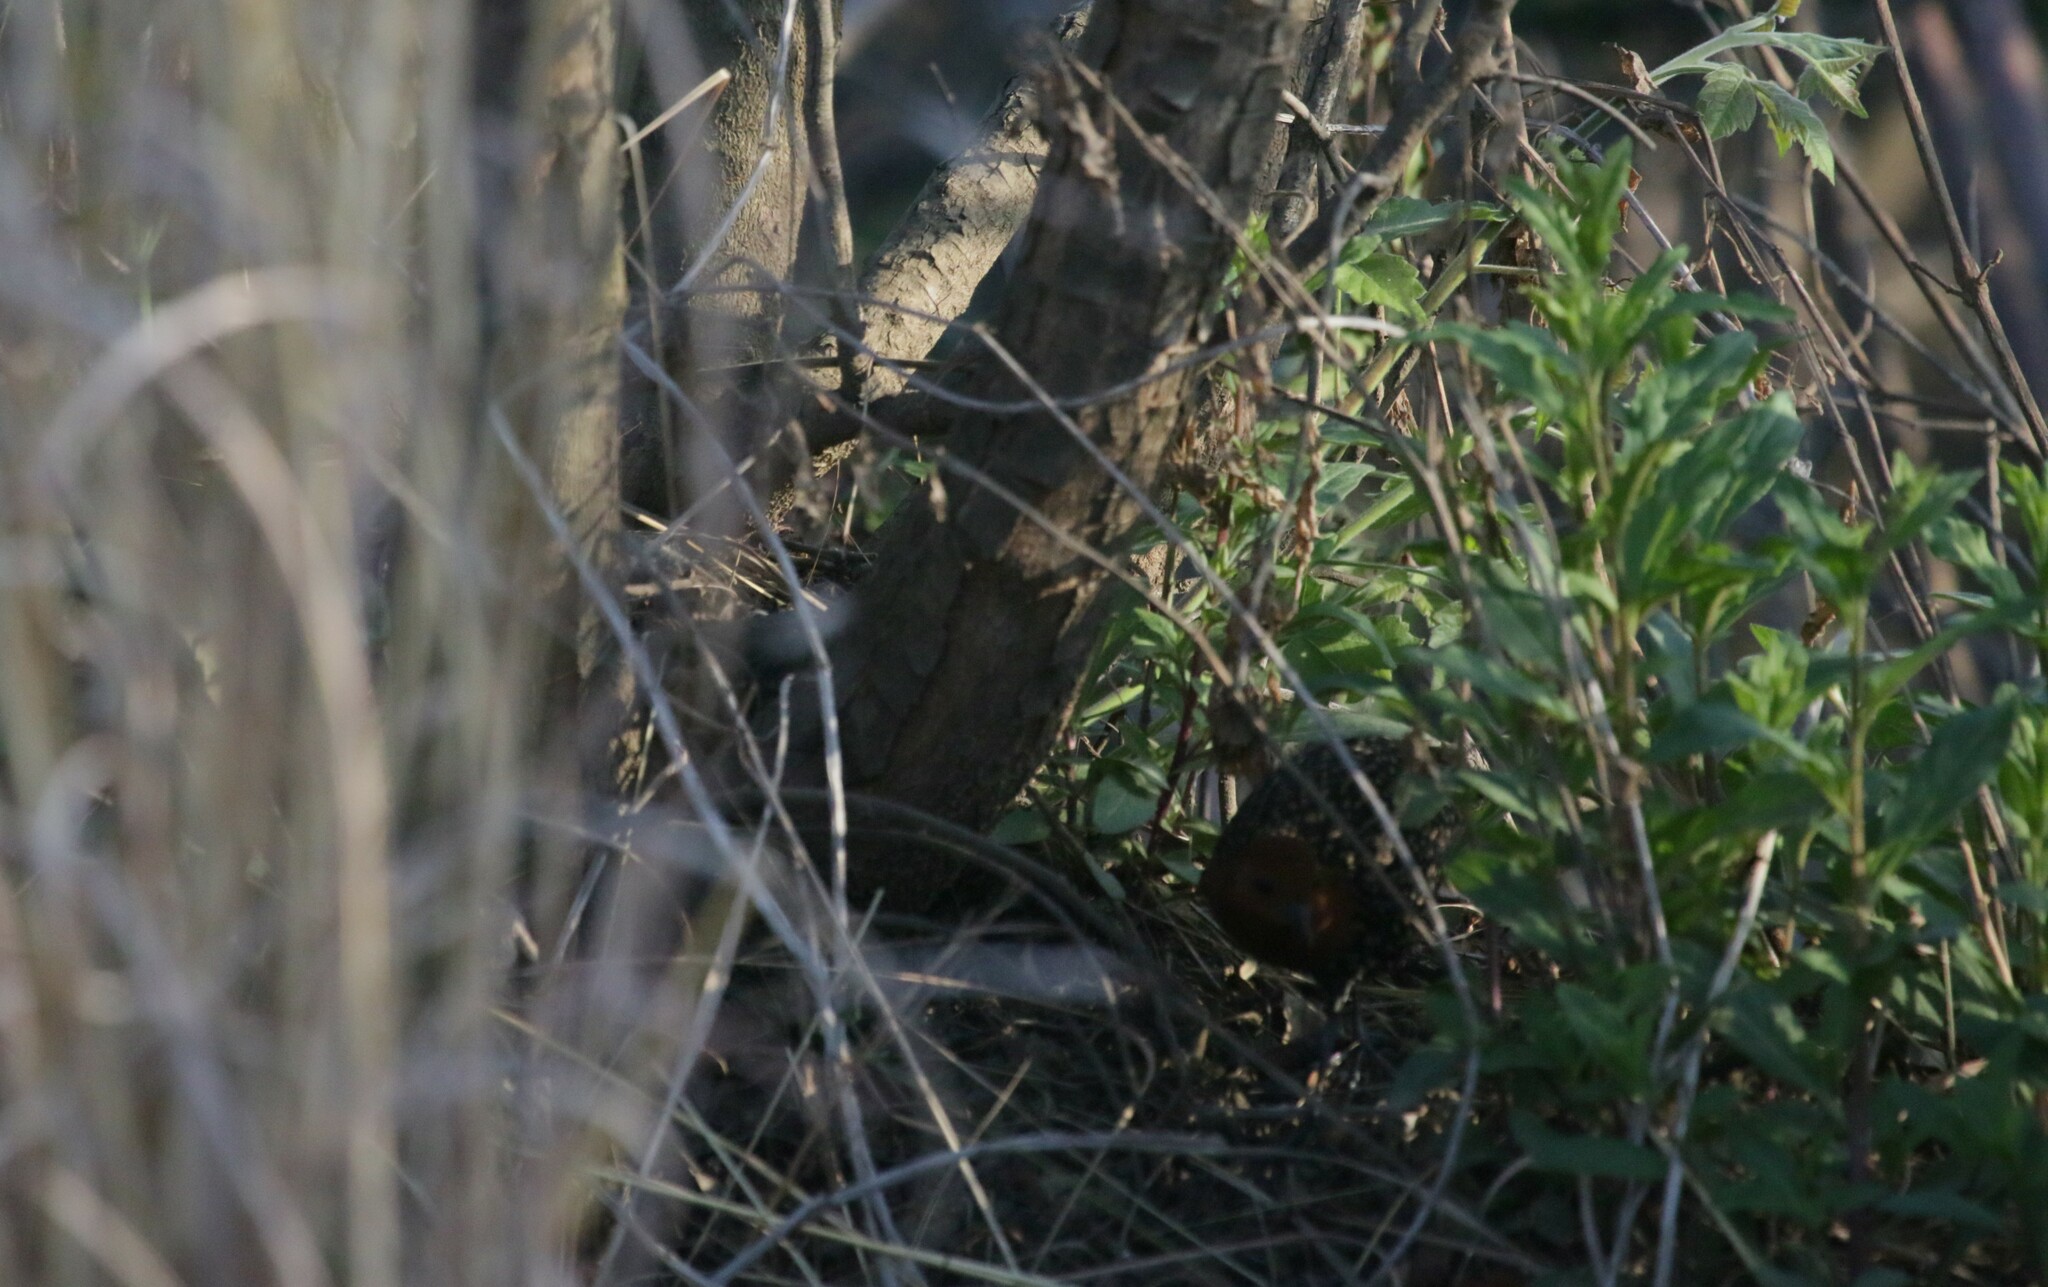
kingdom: Animalia
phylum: Chordata
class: Aves
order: Gruiformes
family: Rallidae
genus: Sarothrura
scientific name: Sarothrura rufa
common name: Red-chested flufftail
